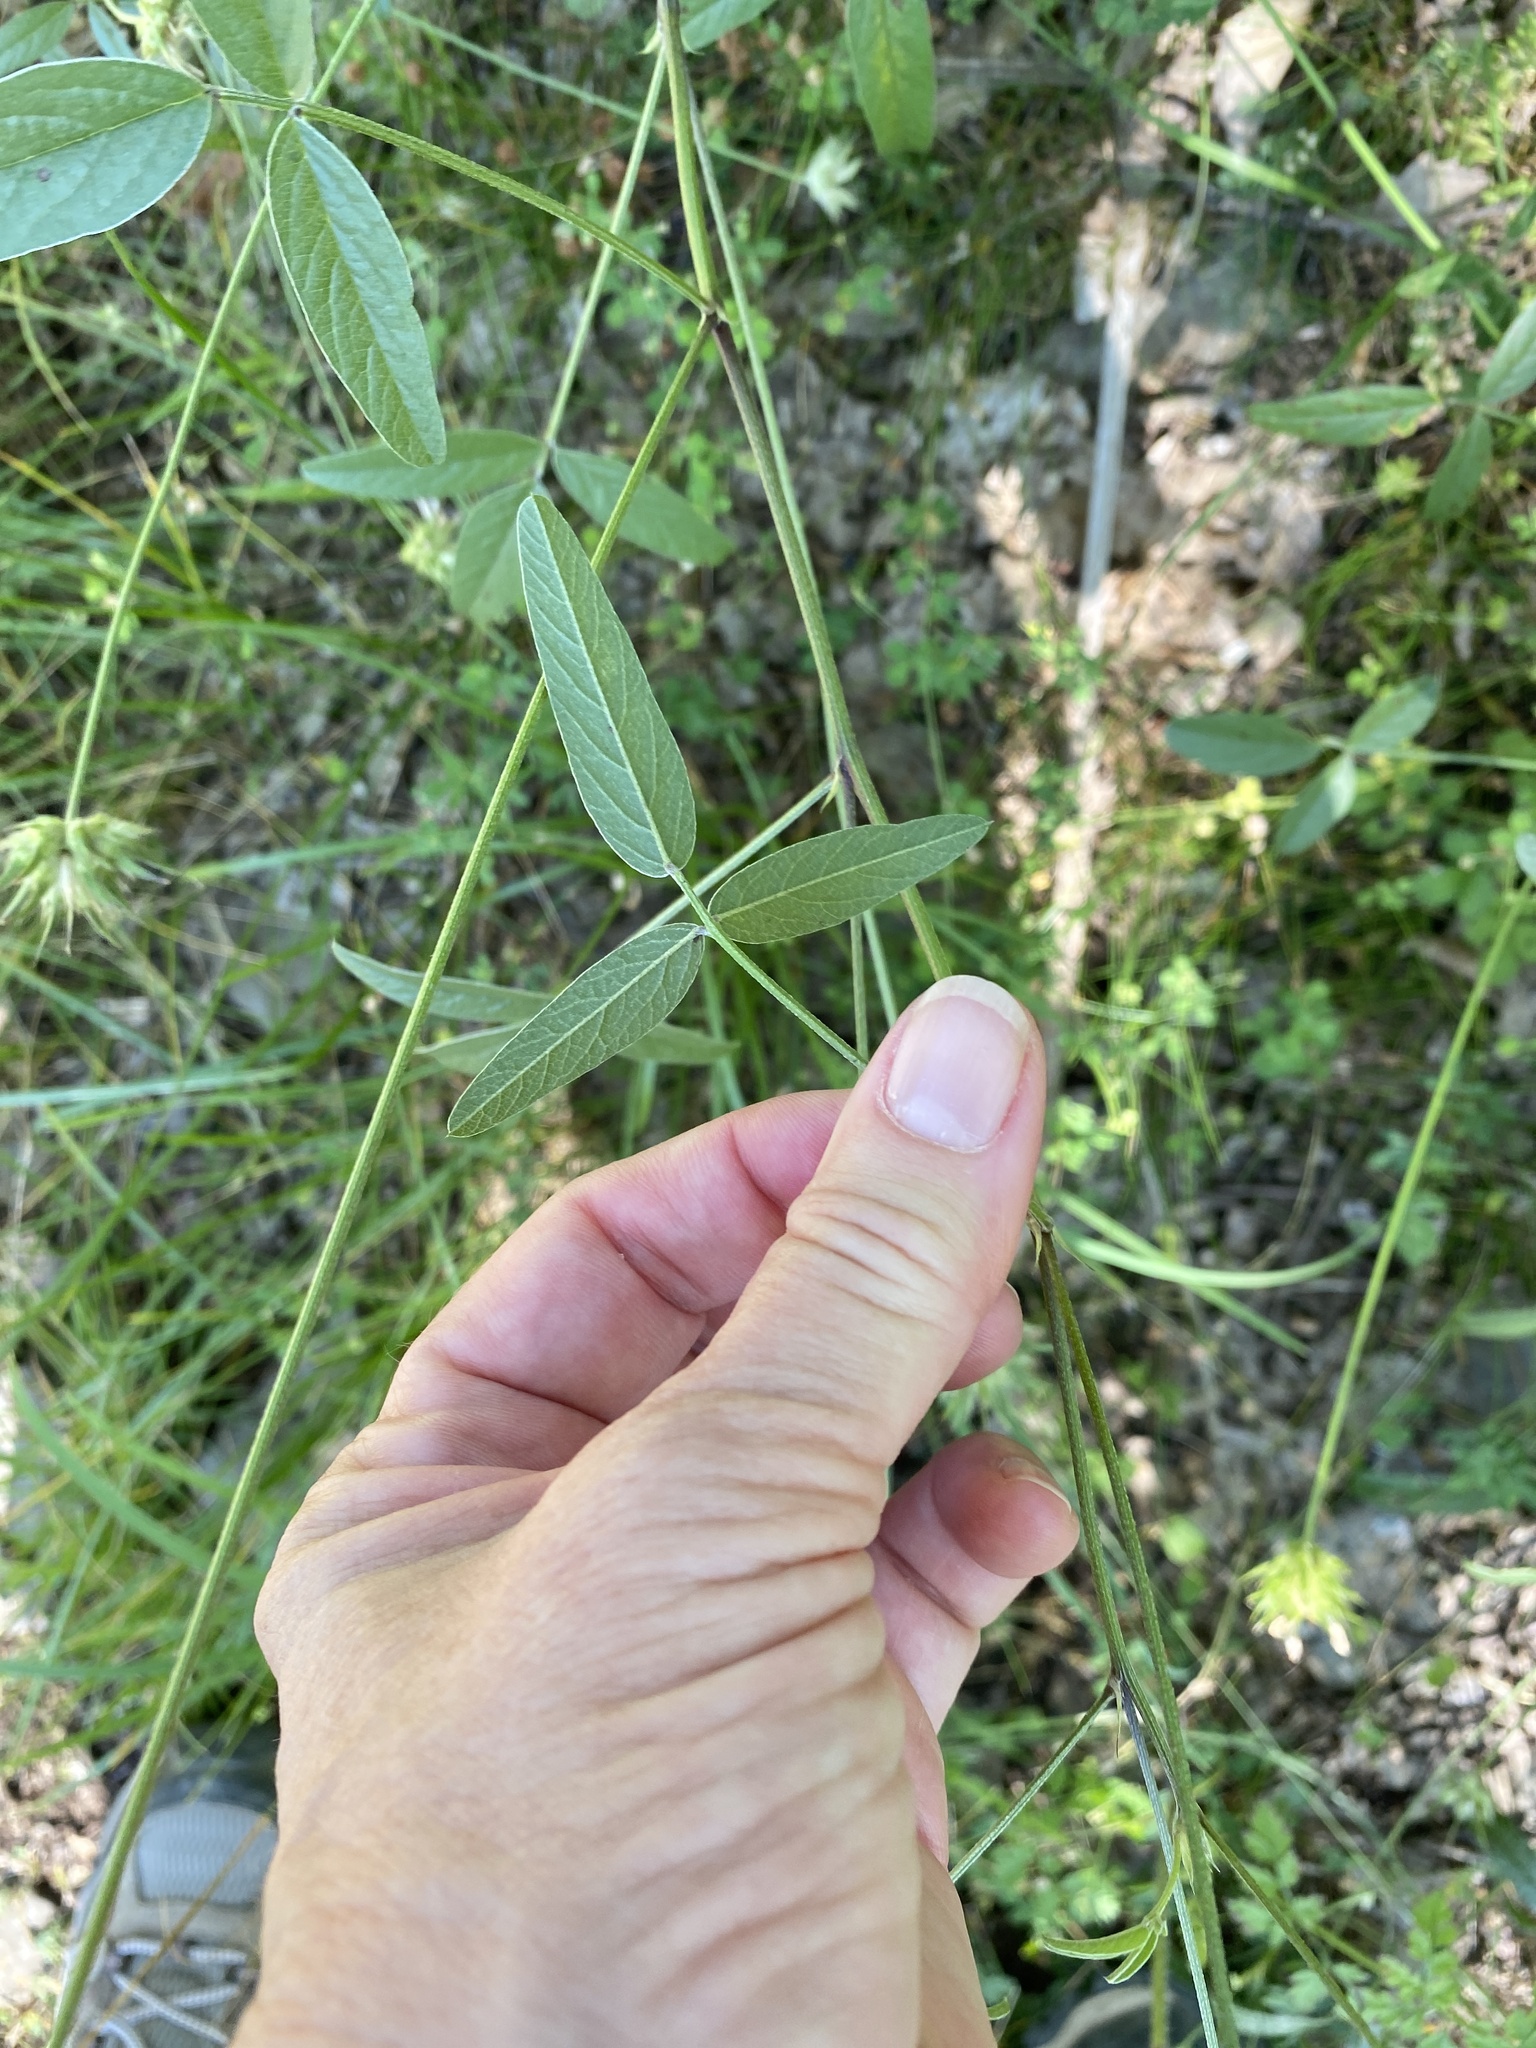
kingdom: Plantae
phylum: Tracheophyta
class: Magnoliopsida
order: Fabales
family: Fabaceae
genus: Bituminaria
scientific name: Bituminaria bituminosa
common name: Arabian pea
